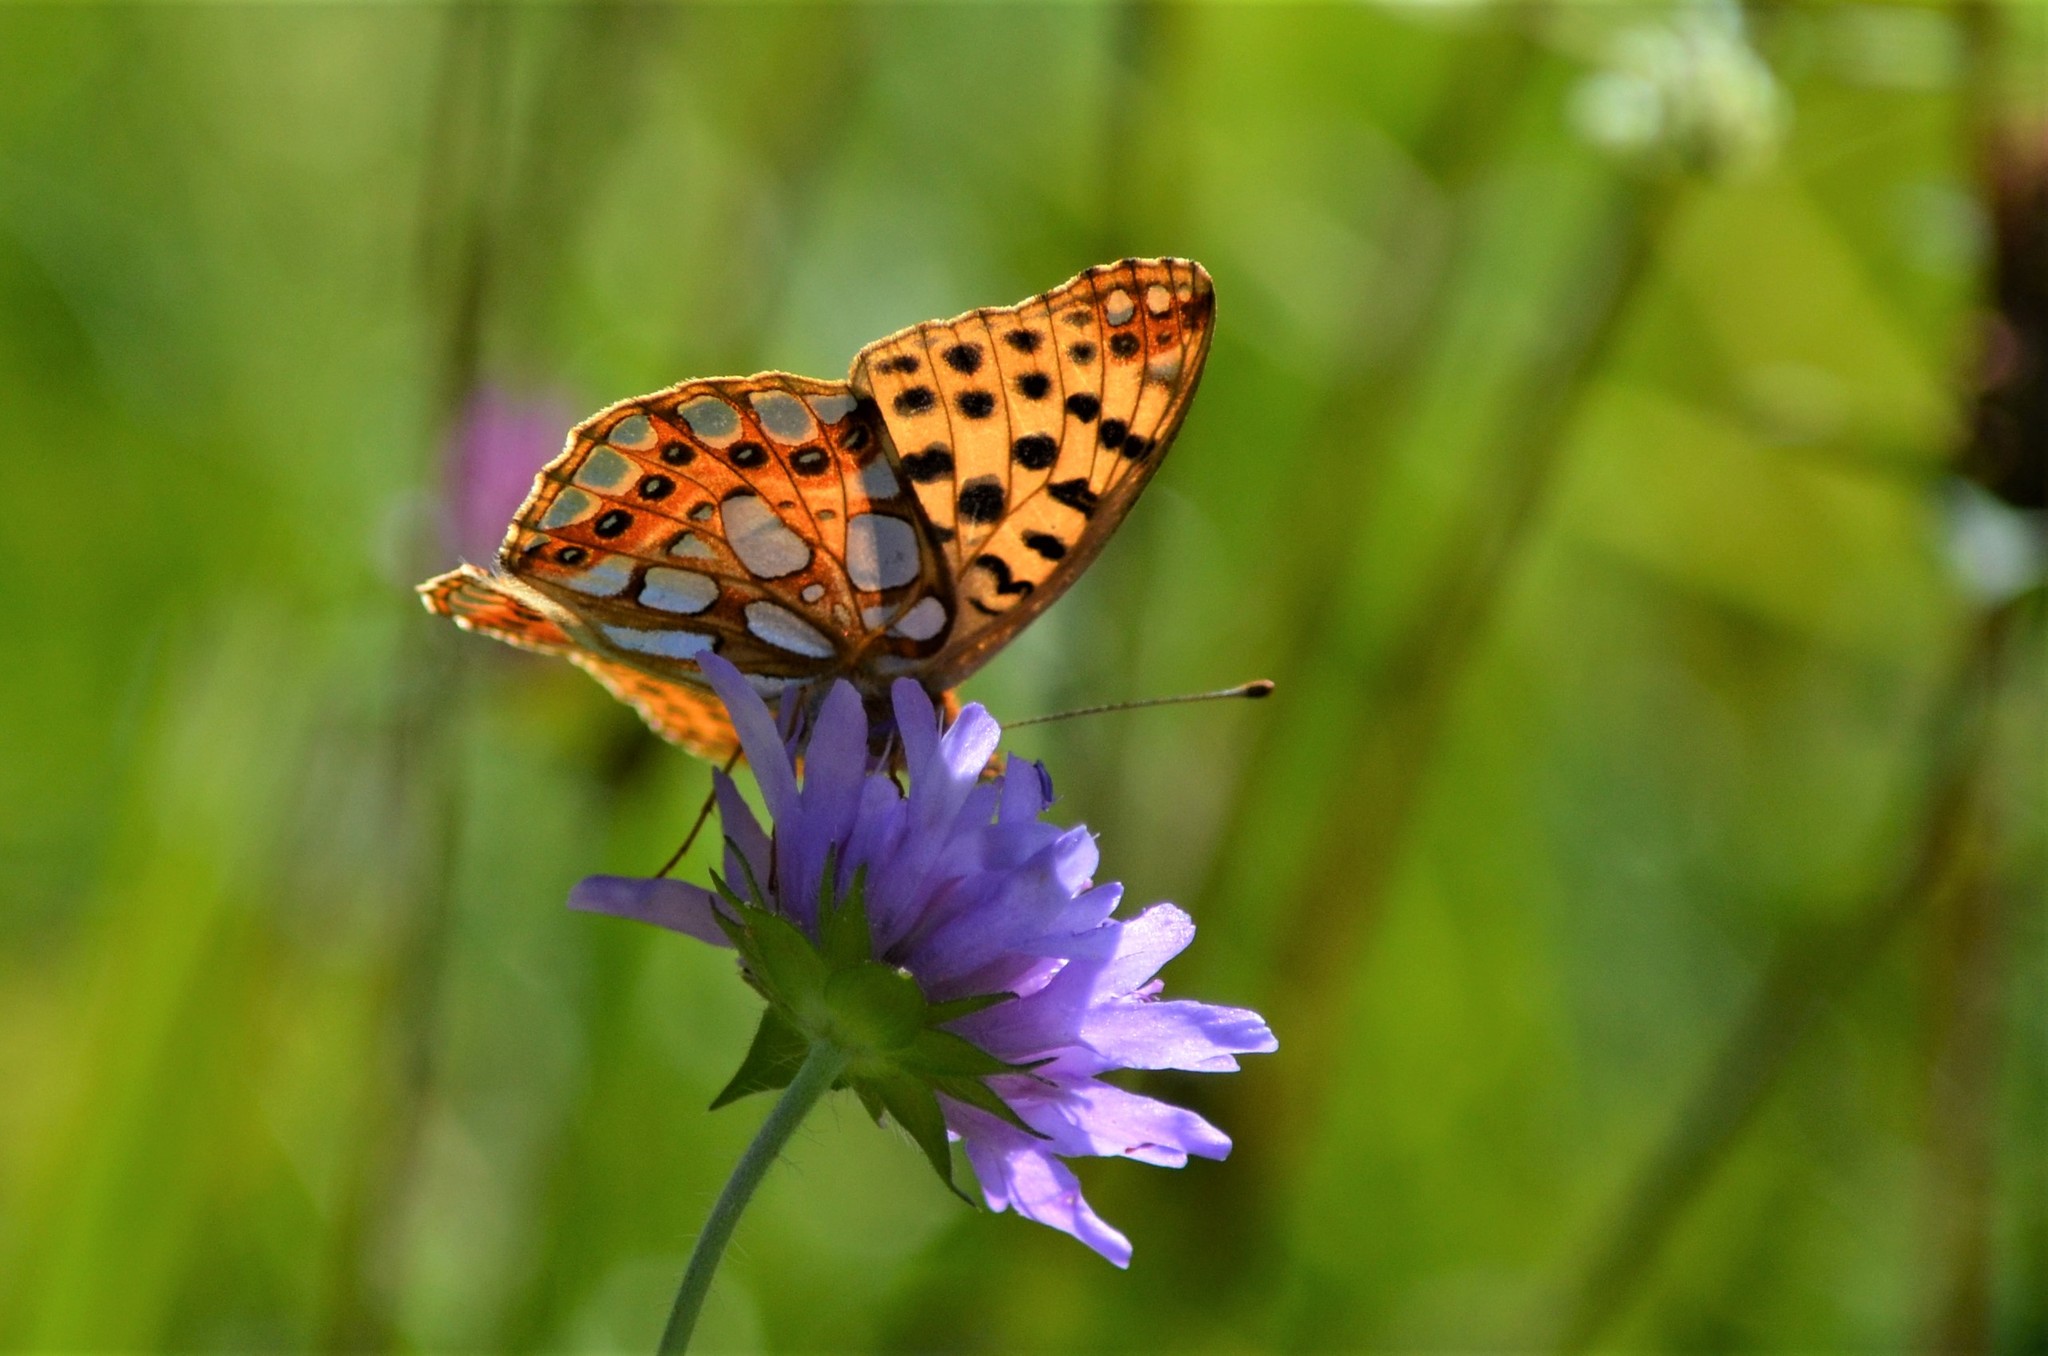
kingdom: Animalia
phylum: Arthropoda
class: Insecta
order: Lepidoptera
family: Nymphalidae
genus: Issoria
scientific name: Issoria lathonia
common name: Queen of spain fritillary
